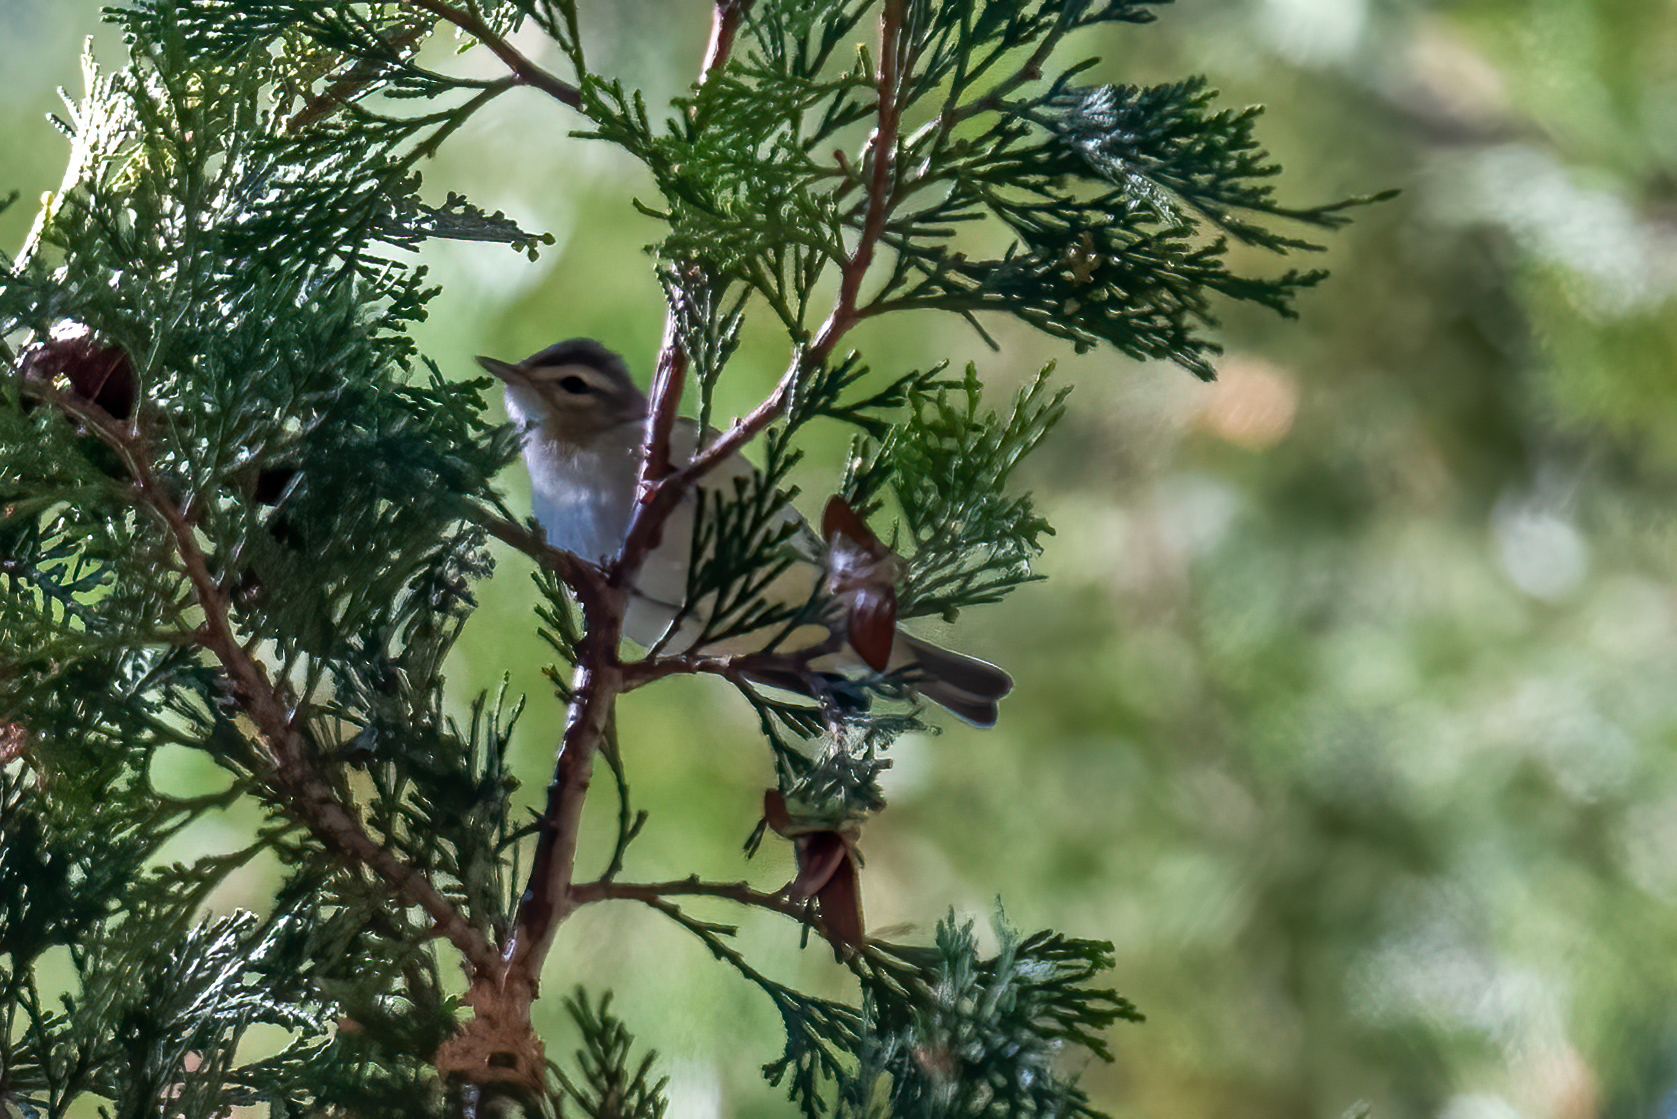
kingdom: Animalia
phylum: Chordata
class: Aves
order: Passeriformes
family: Vireonidae
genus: Vireo
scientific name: Vireo gilvus
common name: Warbling vireo
